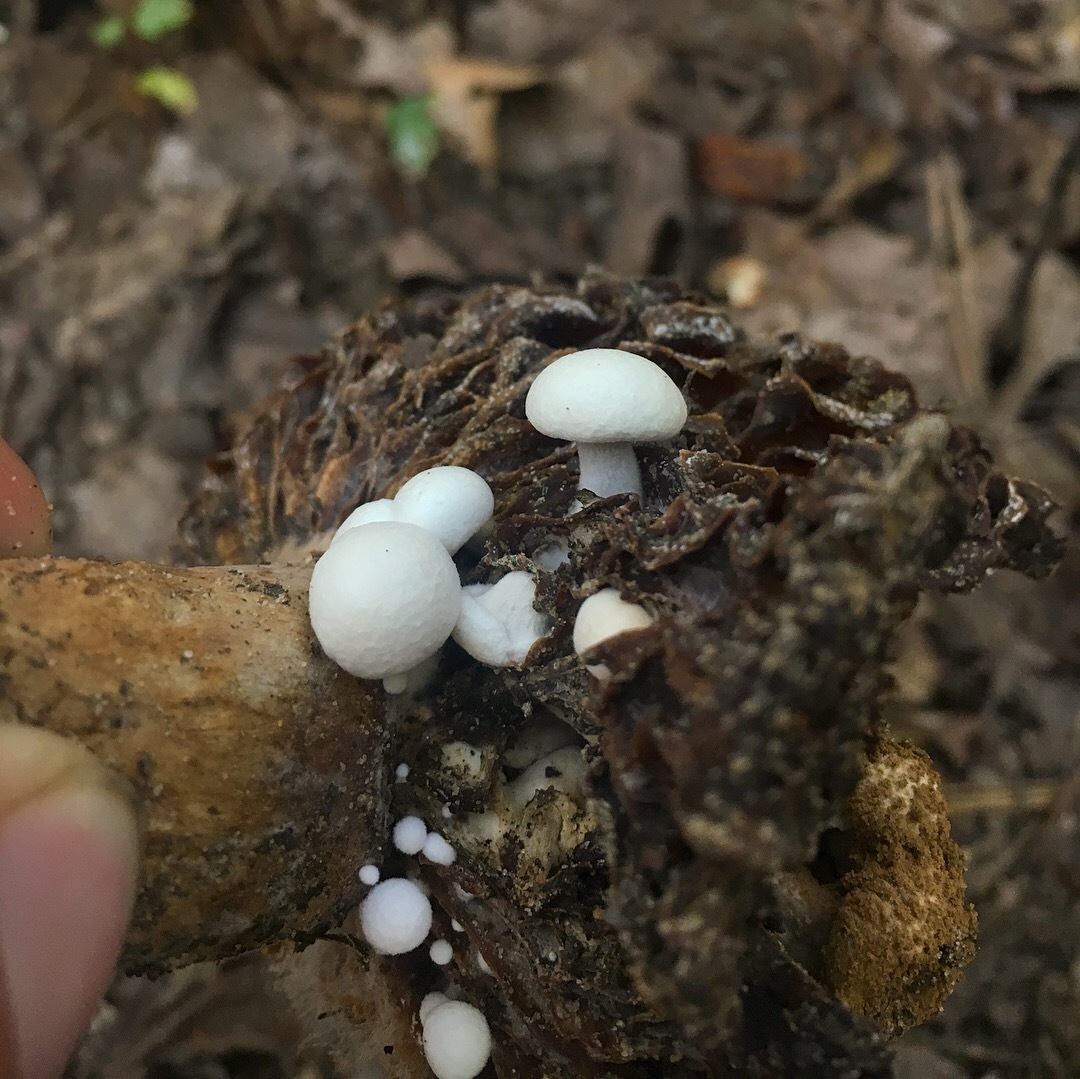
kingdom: Fungi
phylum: Basidiomycota
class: Agaricomycetes
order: Agaricales
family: Lyophyllaceae
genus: Asterophora
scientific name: Asterophora lycoperdoides
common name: Pick-a-back toadstool
